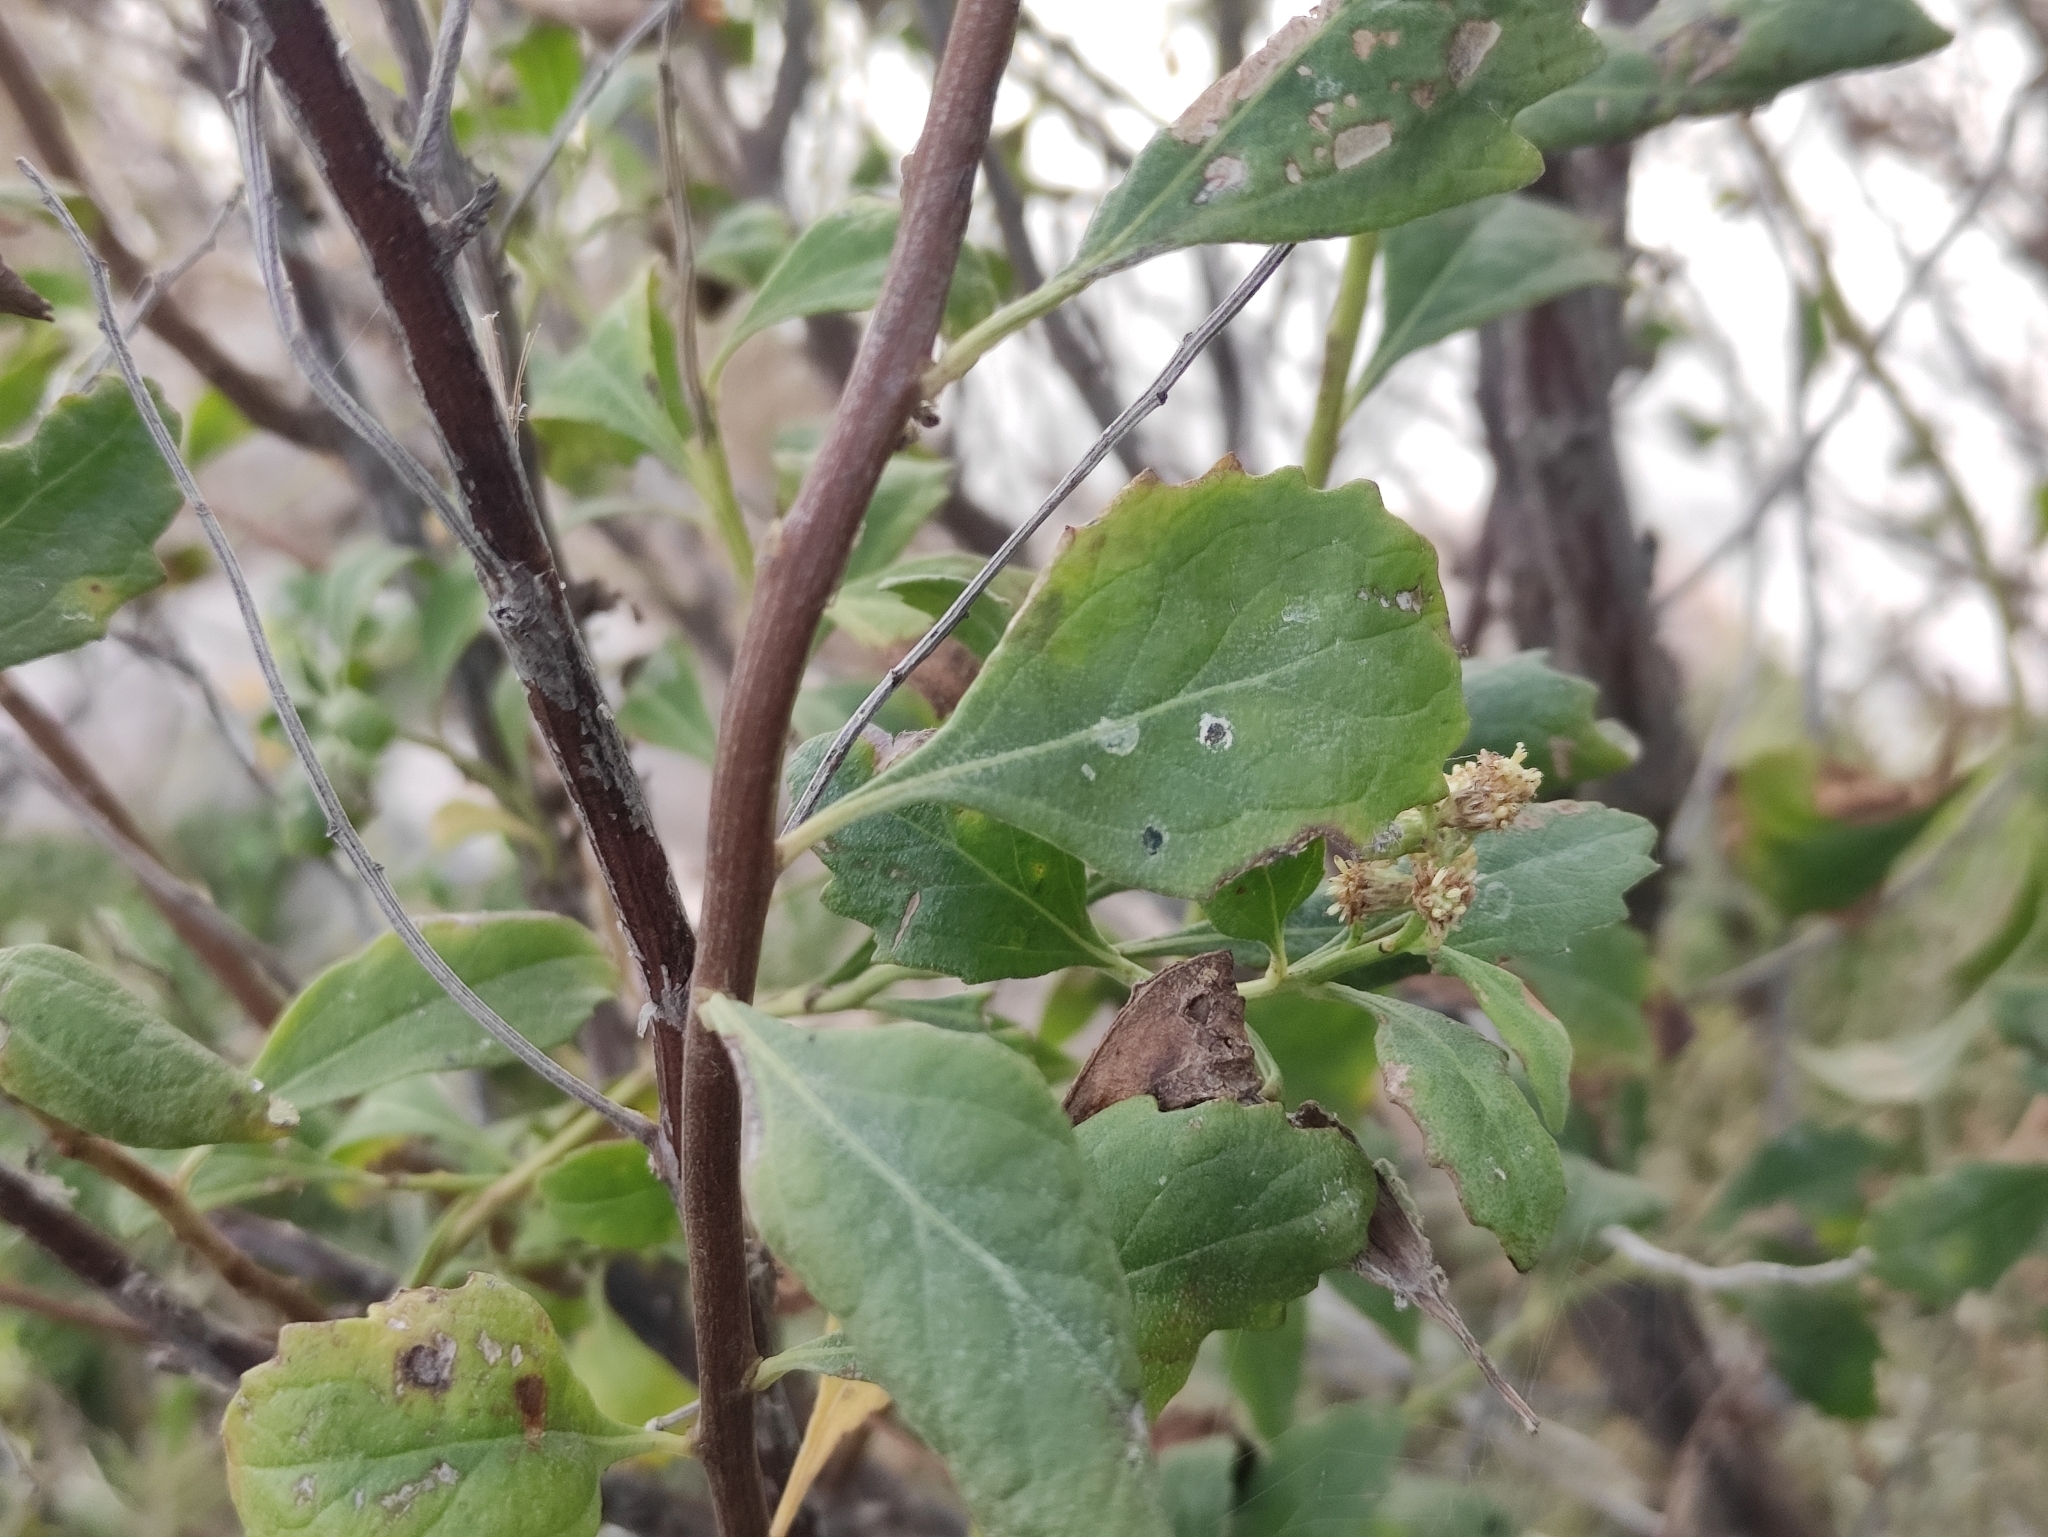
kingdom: Plantae
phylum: Tracheophyta
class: Magnoliopsida
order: Asterales
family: Asteraceae
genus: Baccharis
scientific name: Baccharis halimifolia
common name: Eastern baccharis
